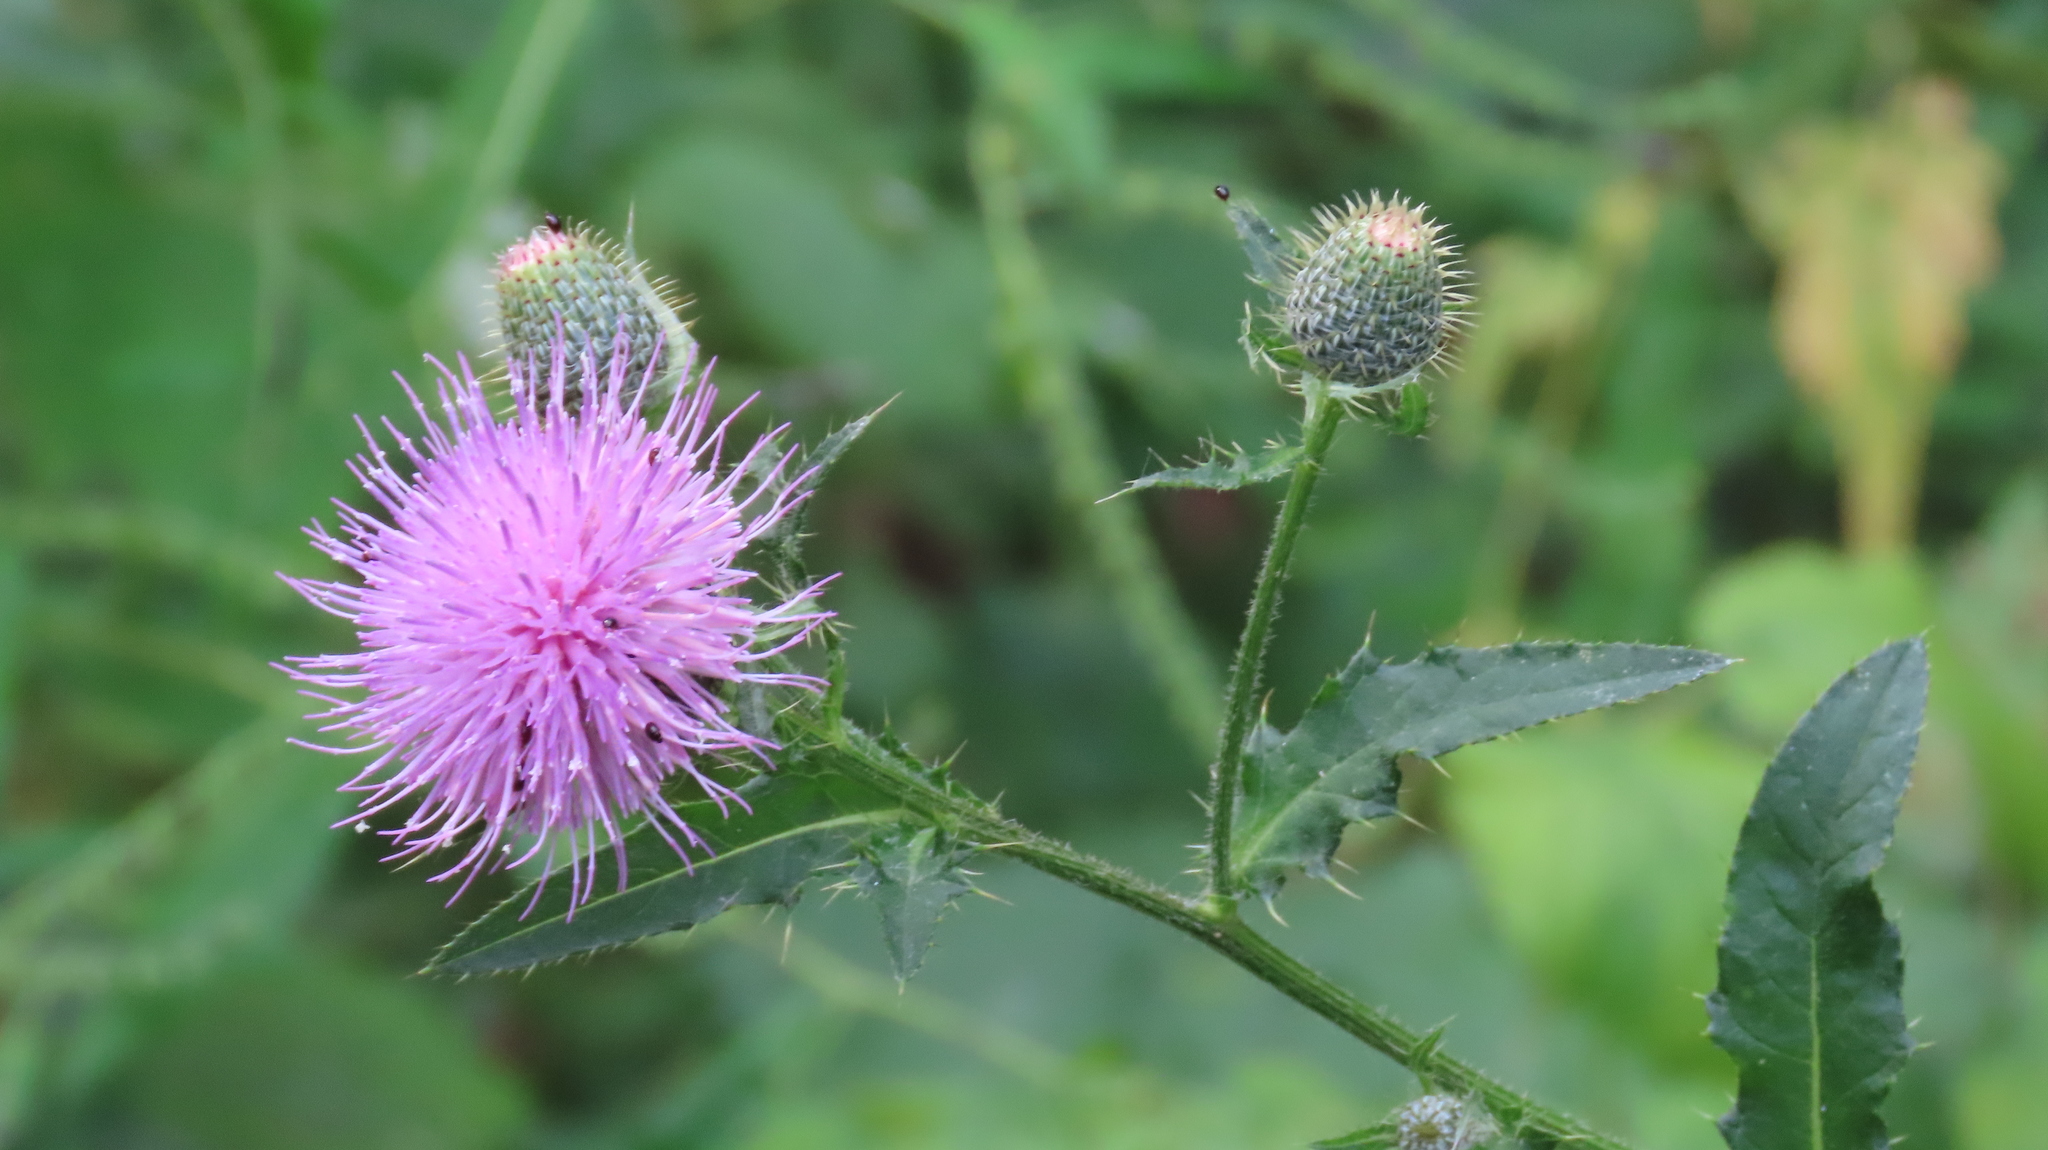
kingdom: Plantae
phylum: Tracheophyta
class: Magnoliopsida
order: Asterales
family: Asteraceae
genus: Cirsium
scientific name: Cirsium altissimum
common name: Roadside thistle
